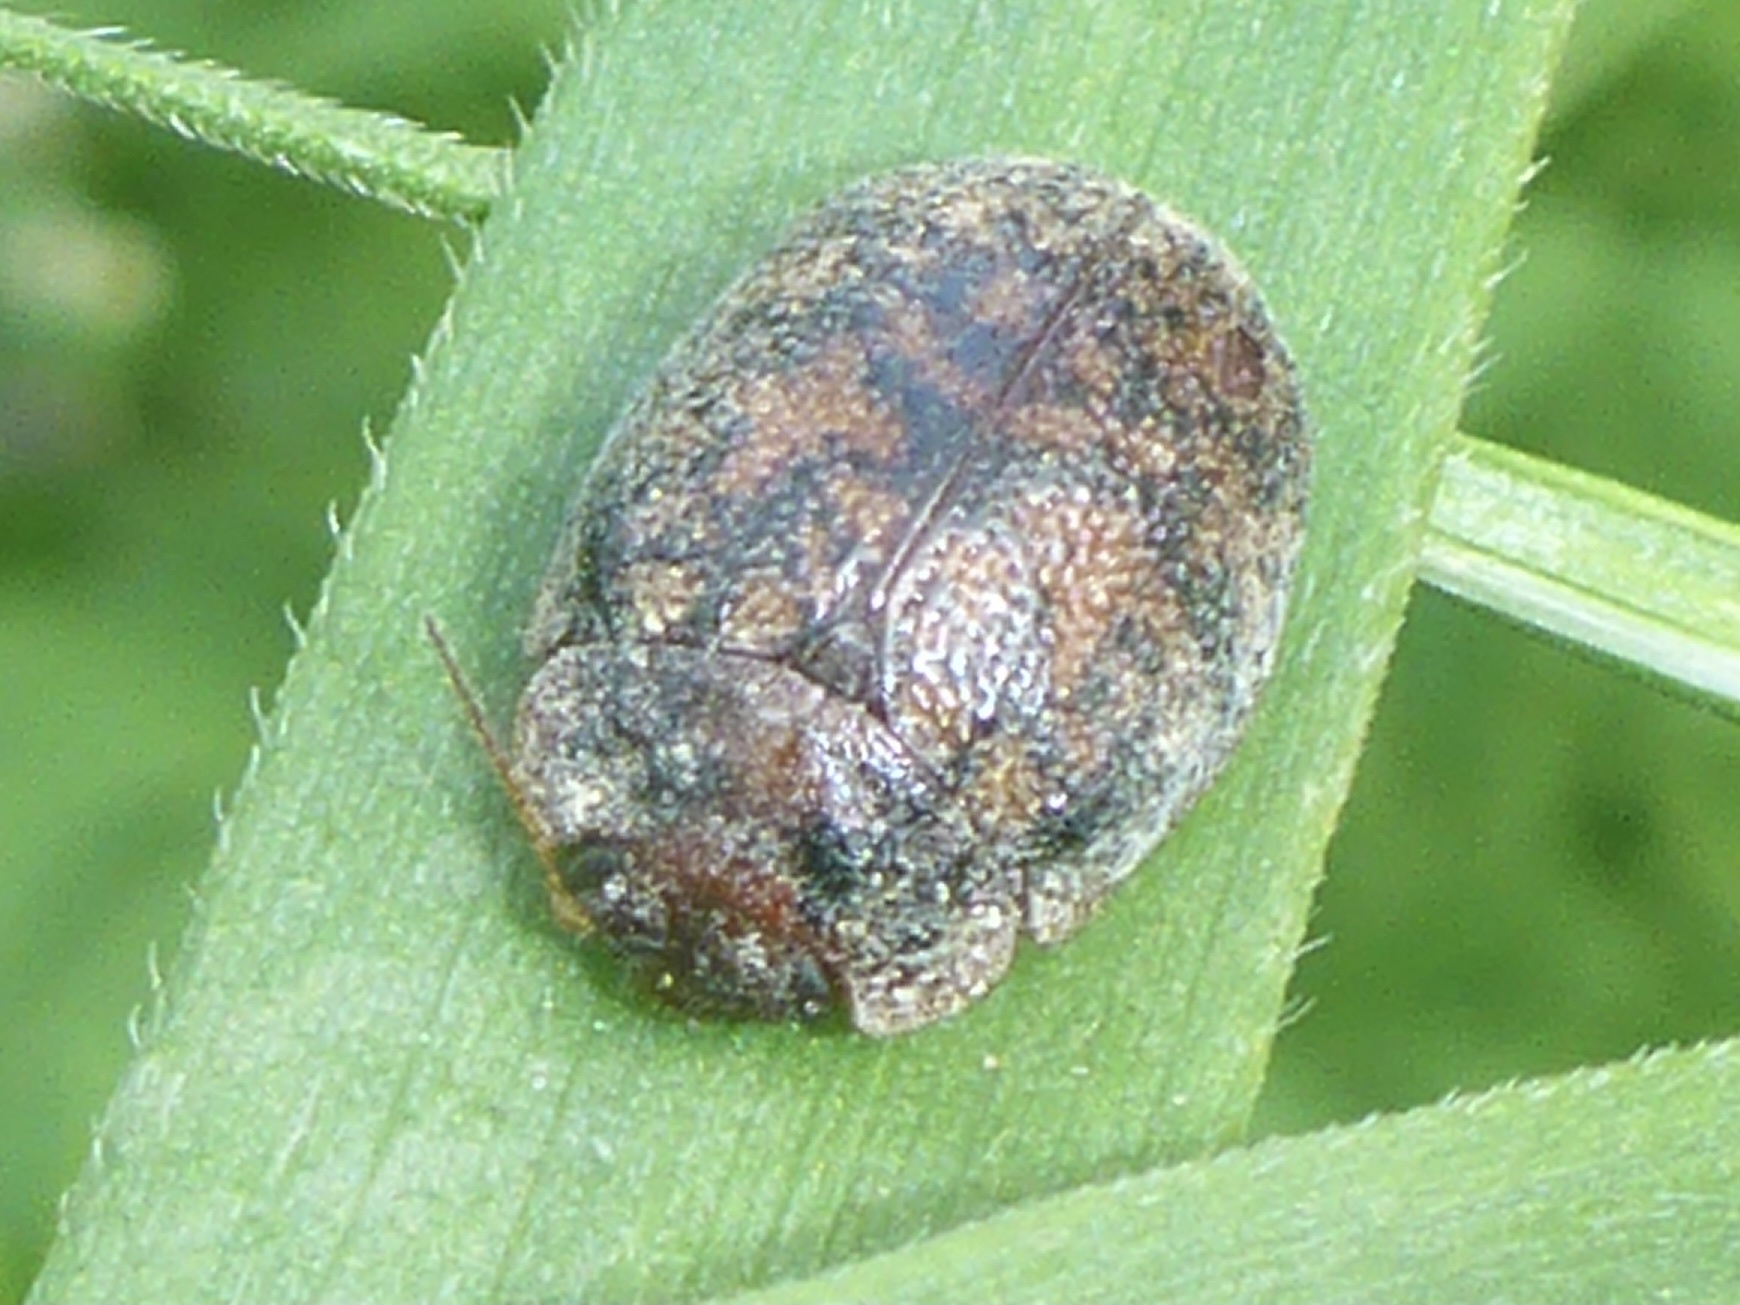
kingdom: Animalia
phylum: Arthropoda
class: Insecta
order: Coleoptera
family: Chrysomelidae
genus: Trachymela
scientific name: Trachymela sloanei
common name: Australian tortoise beetle
